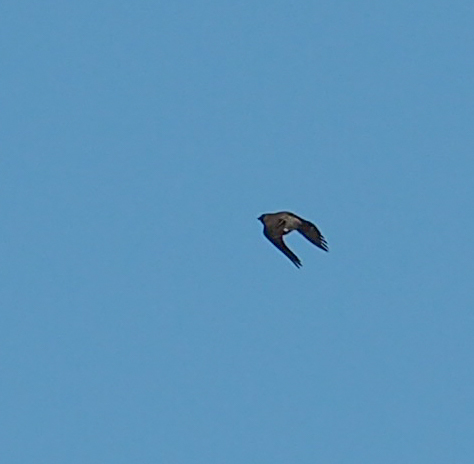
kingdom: Animalia
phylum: Chordata
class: Aves
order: Passeriformes
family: Turdidae
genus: Turdus
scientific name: Turdus migratorius
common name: American robin
